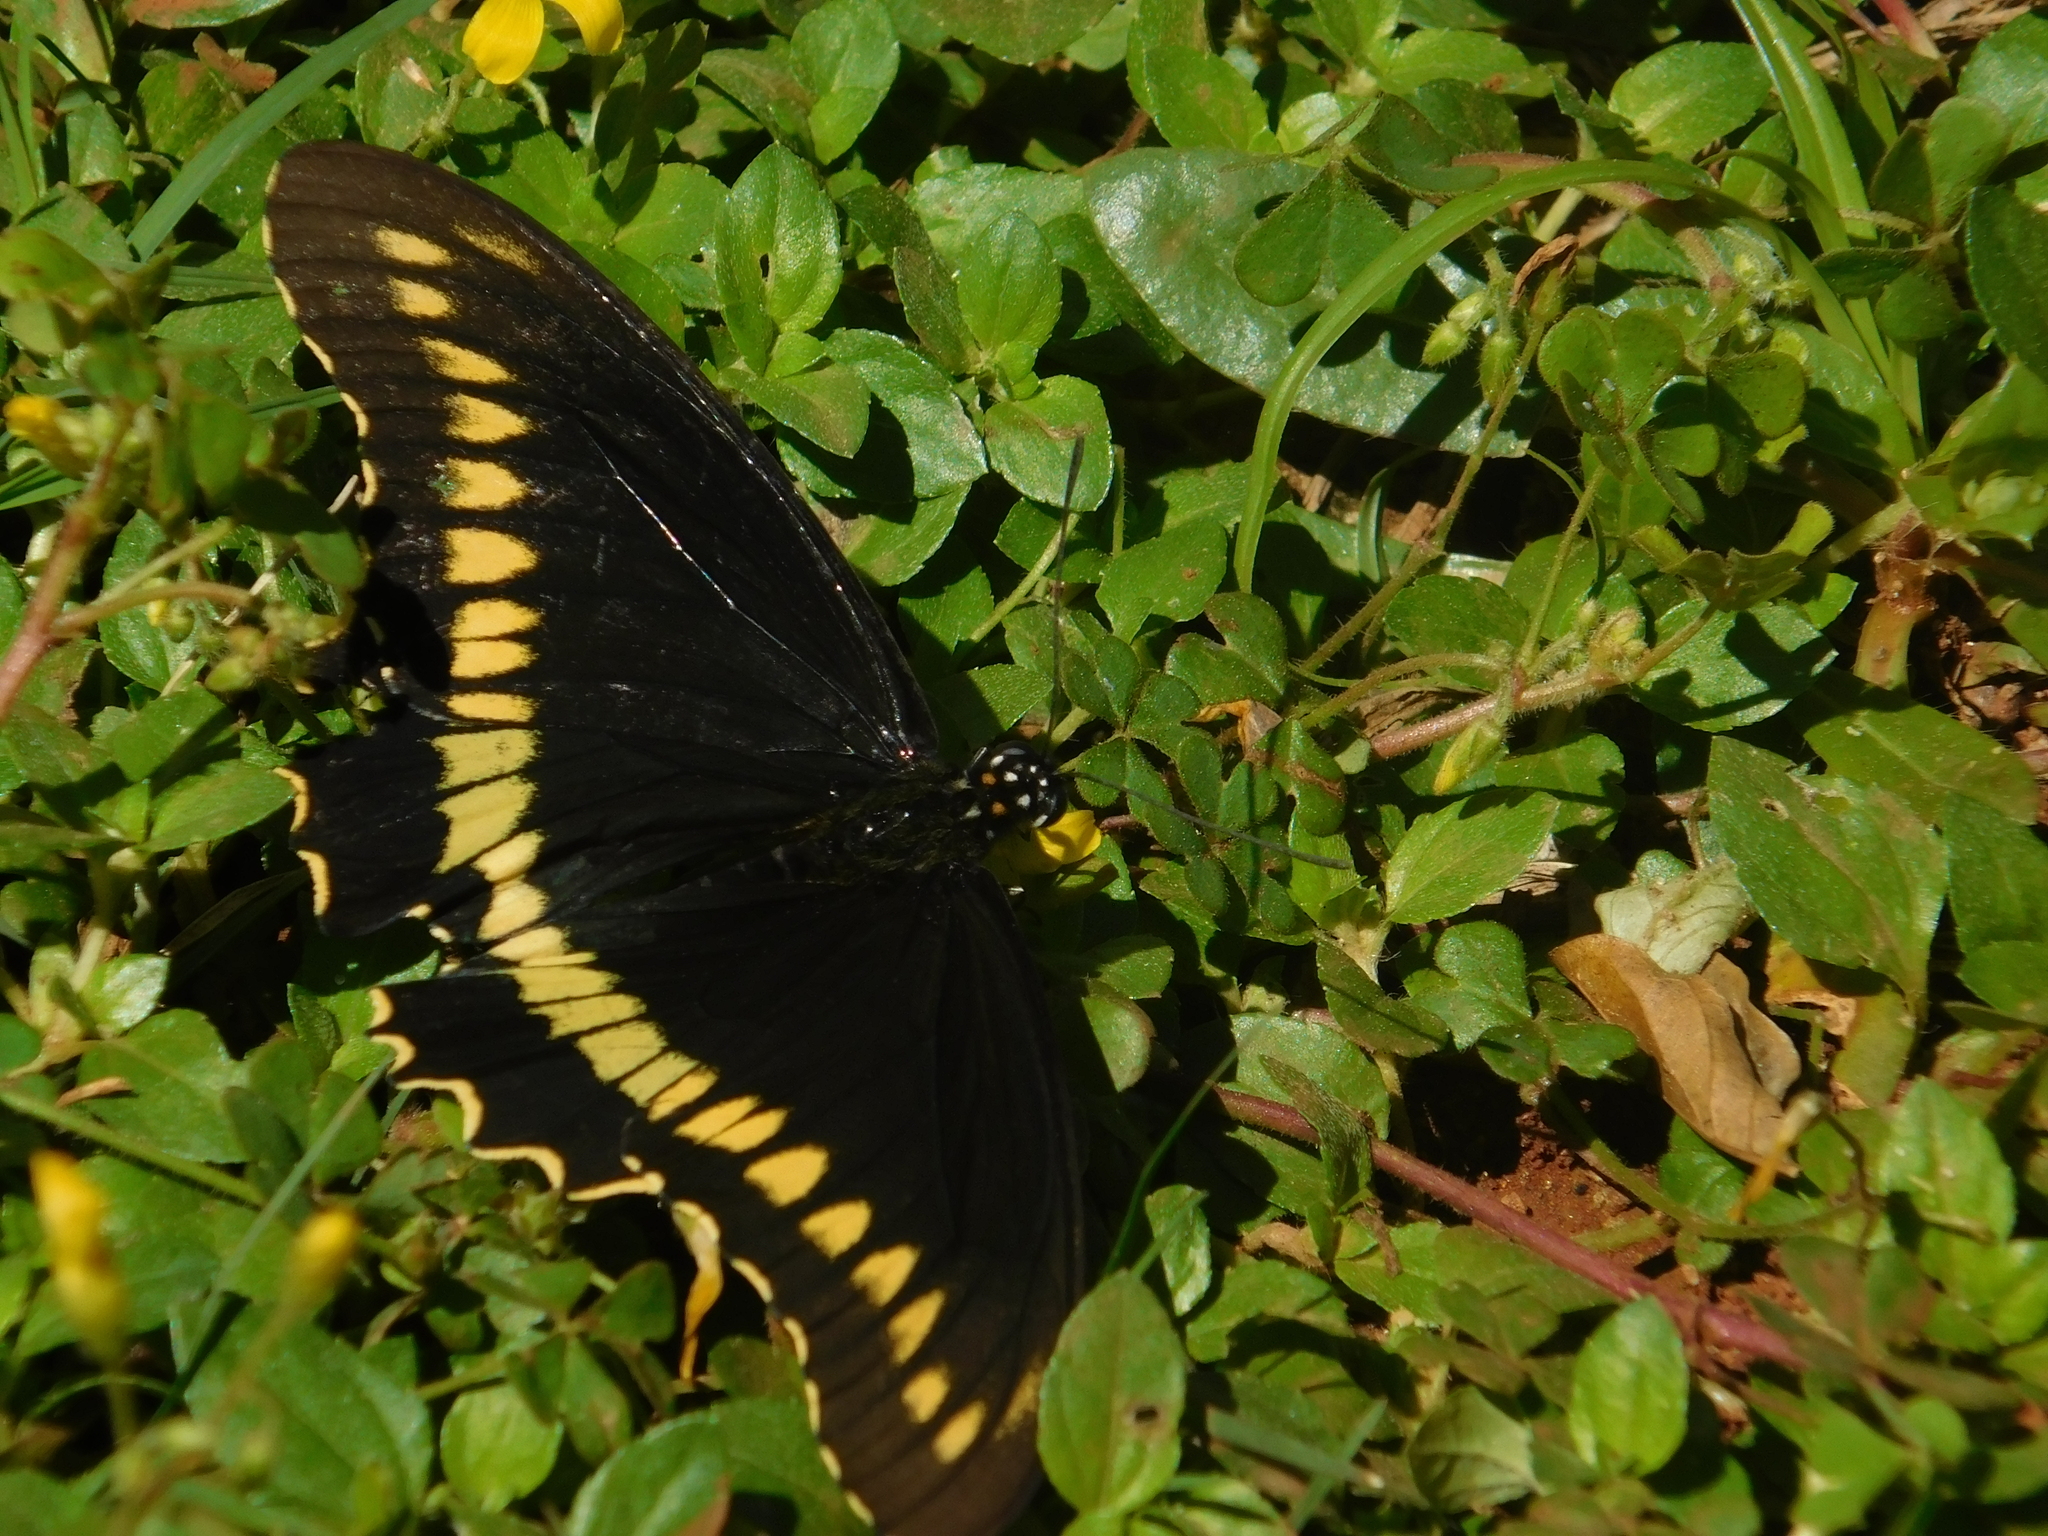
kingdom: Animalia
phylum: Arthropoda
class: Insecta
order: Lepidoptera
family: Papilionidae
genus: Battus
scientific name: Battus polydamas
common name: Polydamas swallowtail
